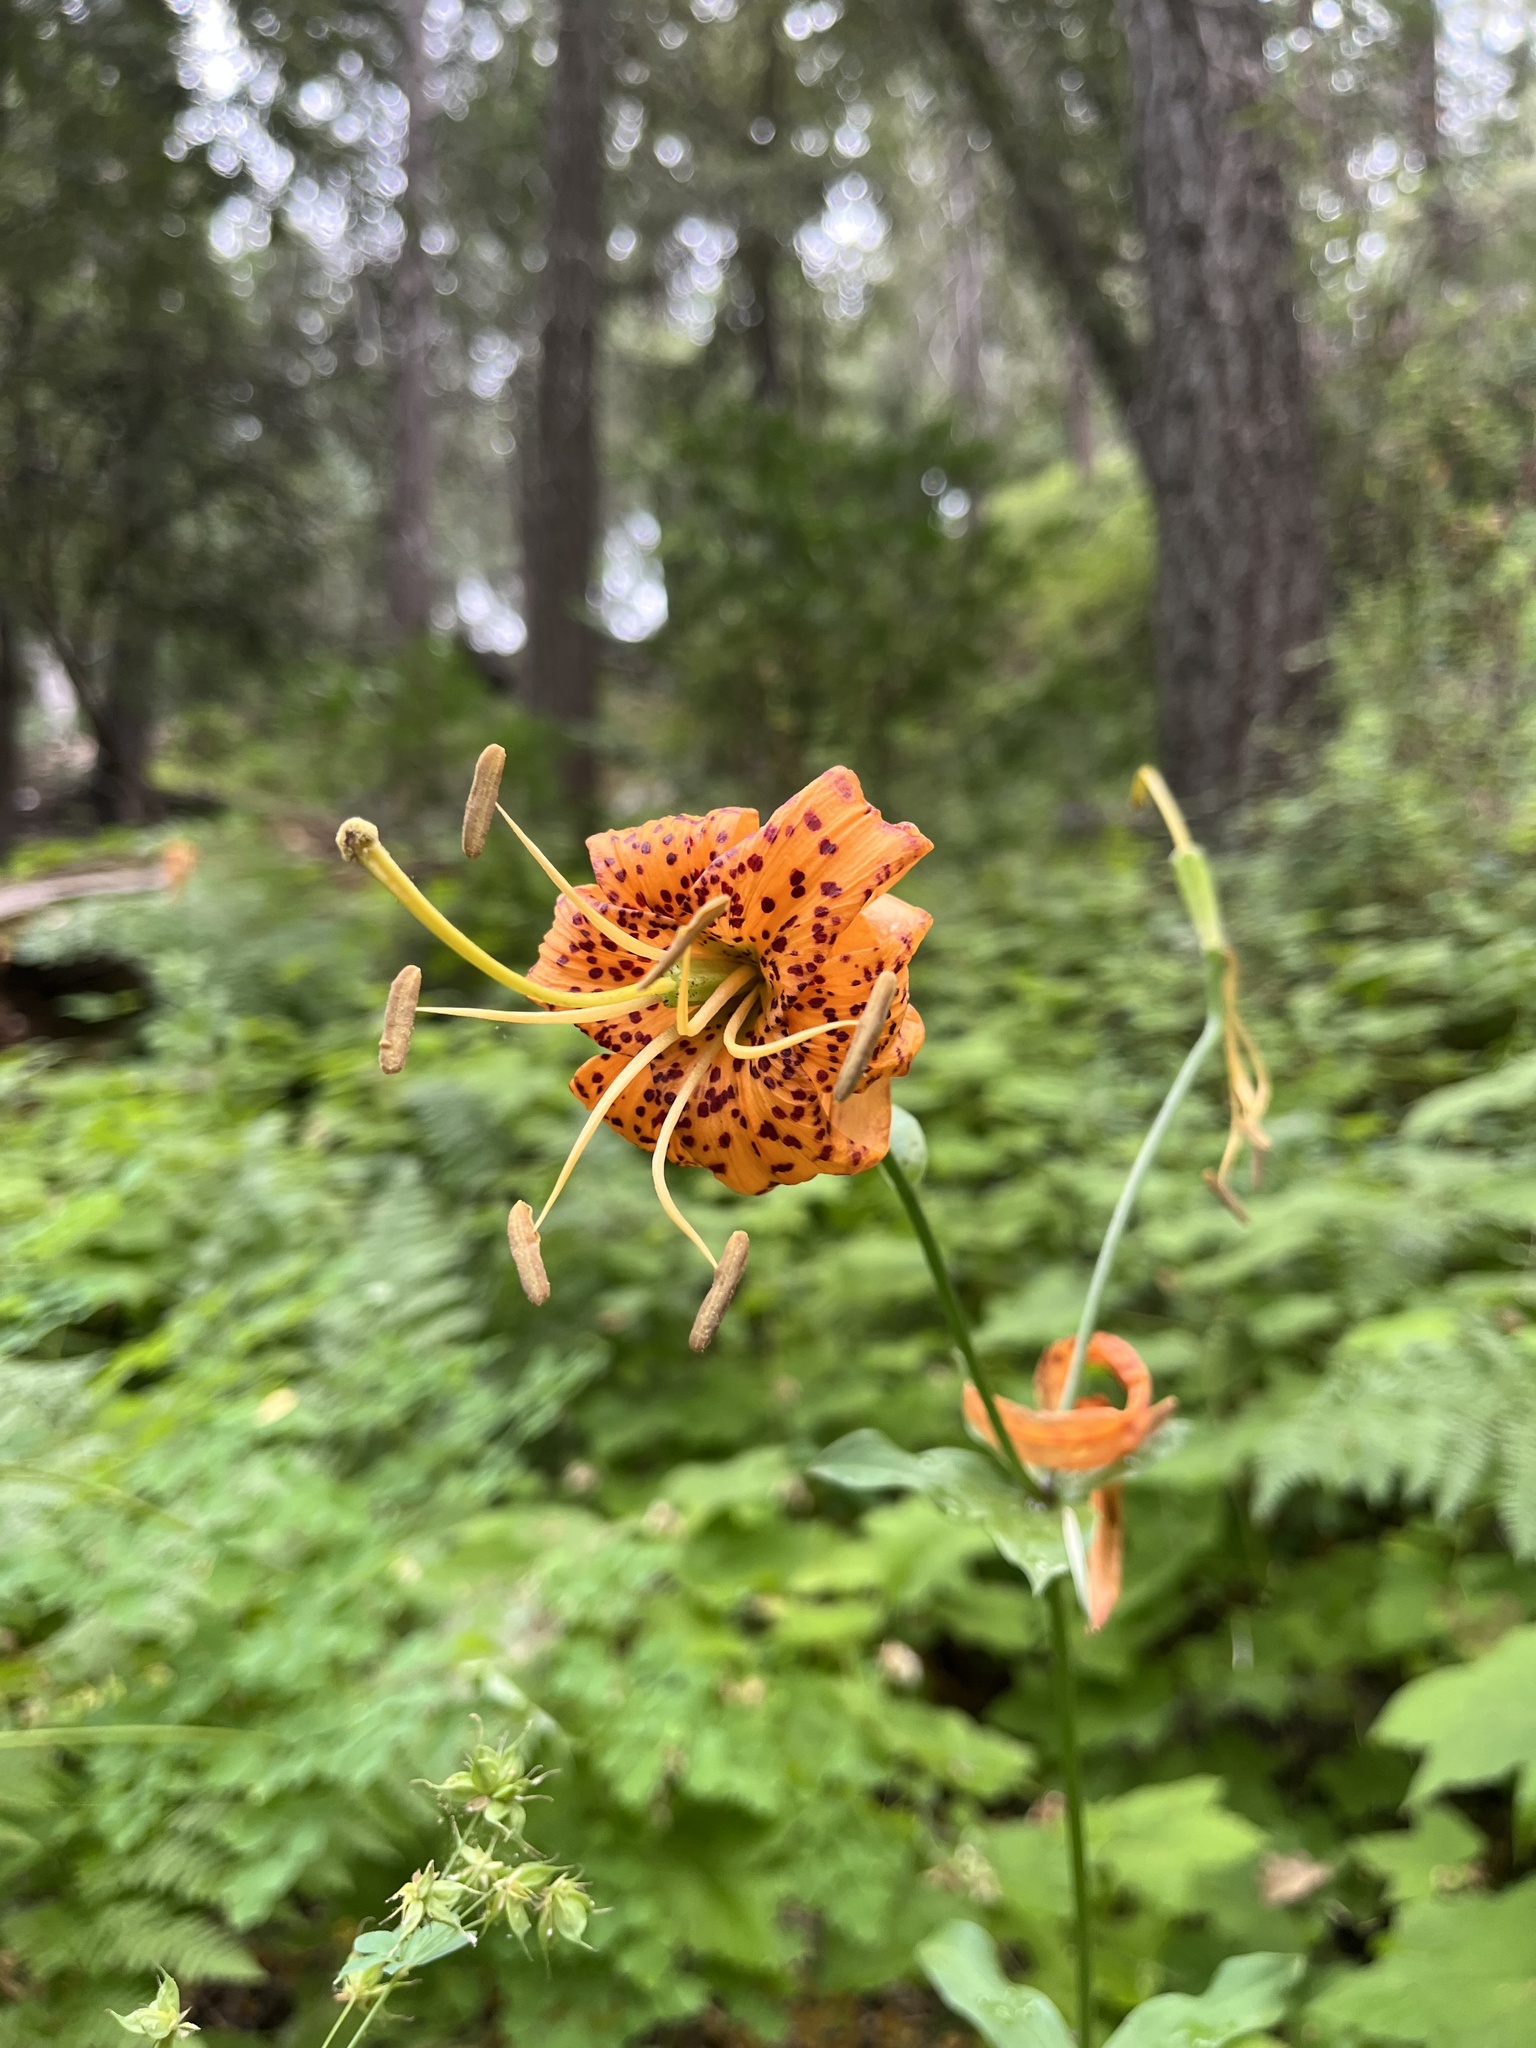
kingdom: Plantae
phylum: Tracheophyta
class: Liliopsida
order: Liliales
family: Liliaceae
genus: Lilium
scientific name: Lilium humboldtii
